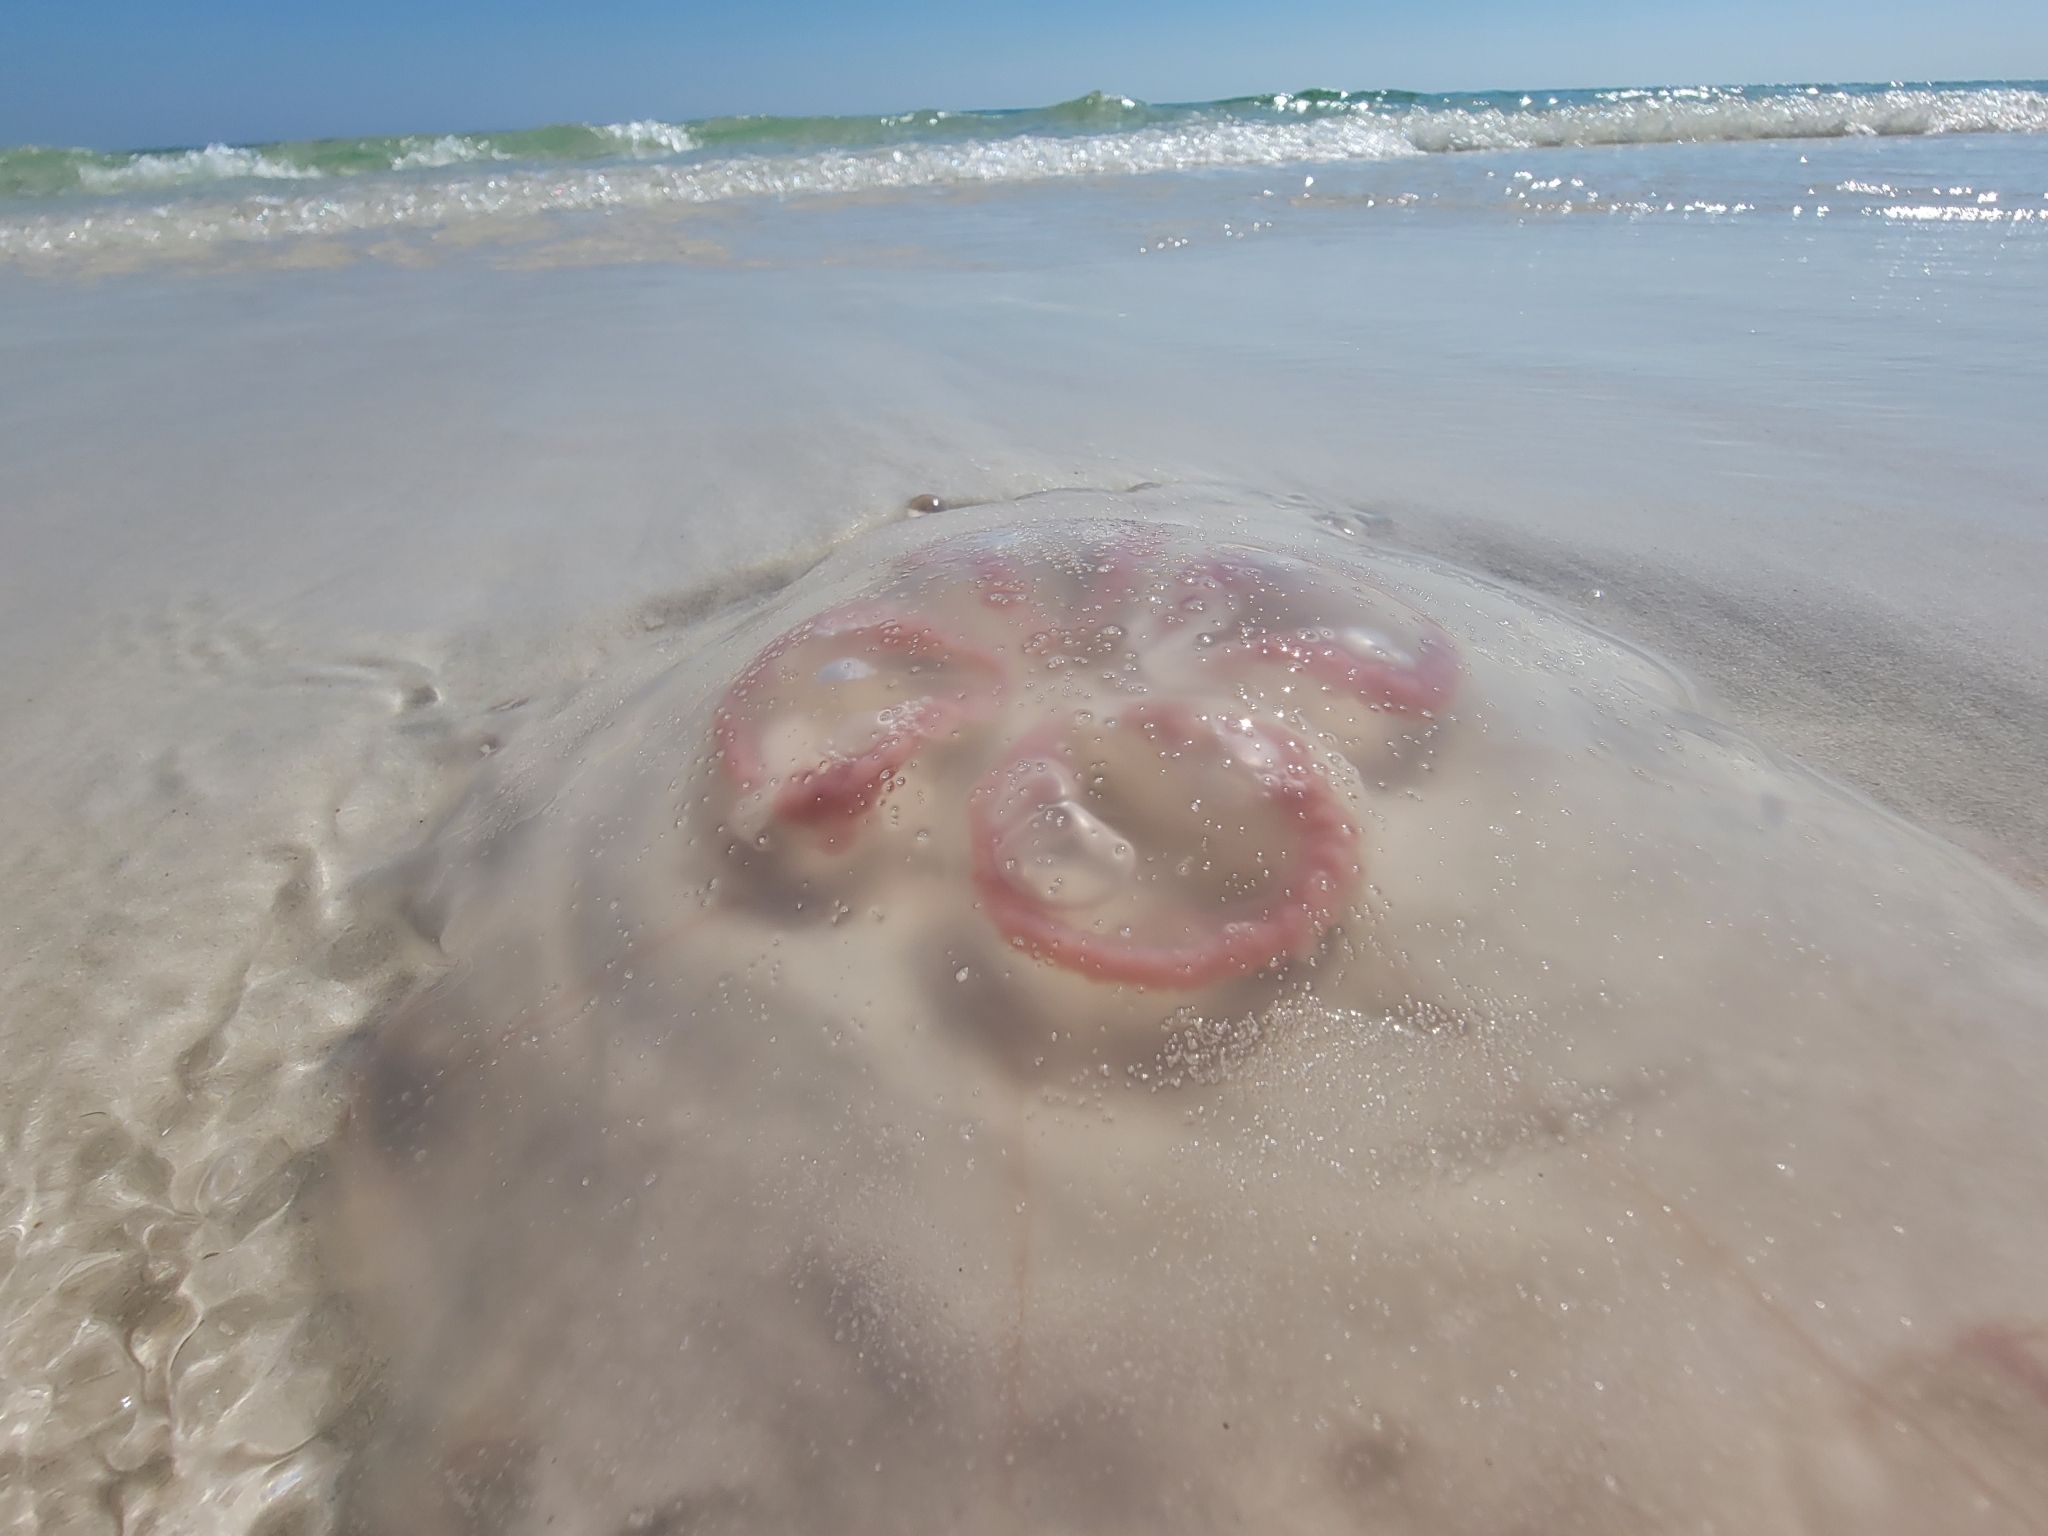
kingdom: Animalia
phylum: Cnidaria
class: Scyphozoa
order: Semaeostomeae
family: Ulmaridae
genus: Aurelia
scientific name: Aurelia marginalis
